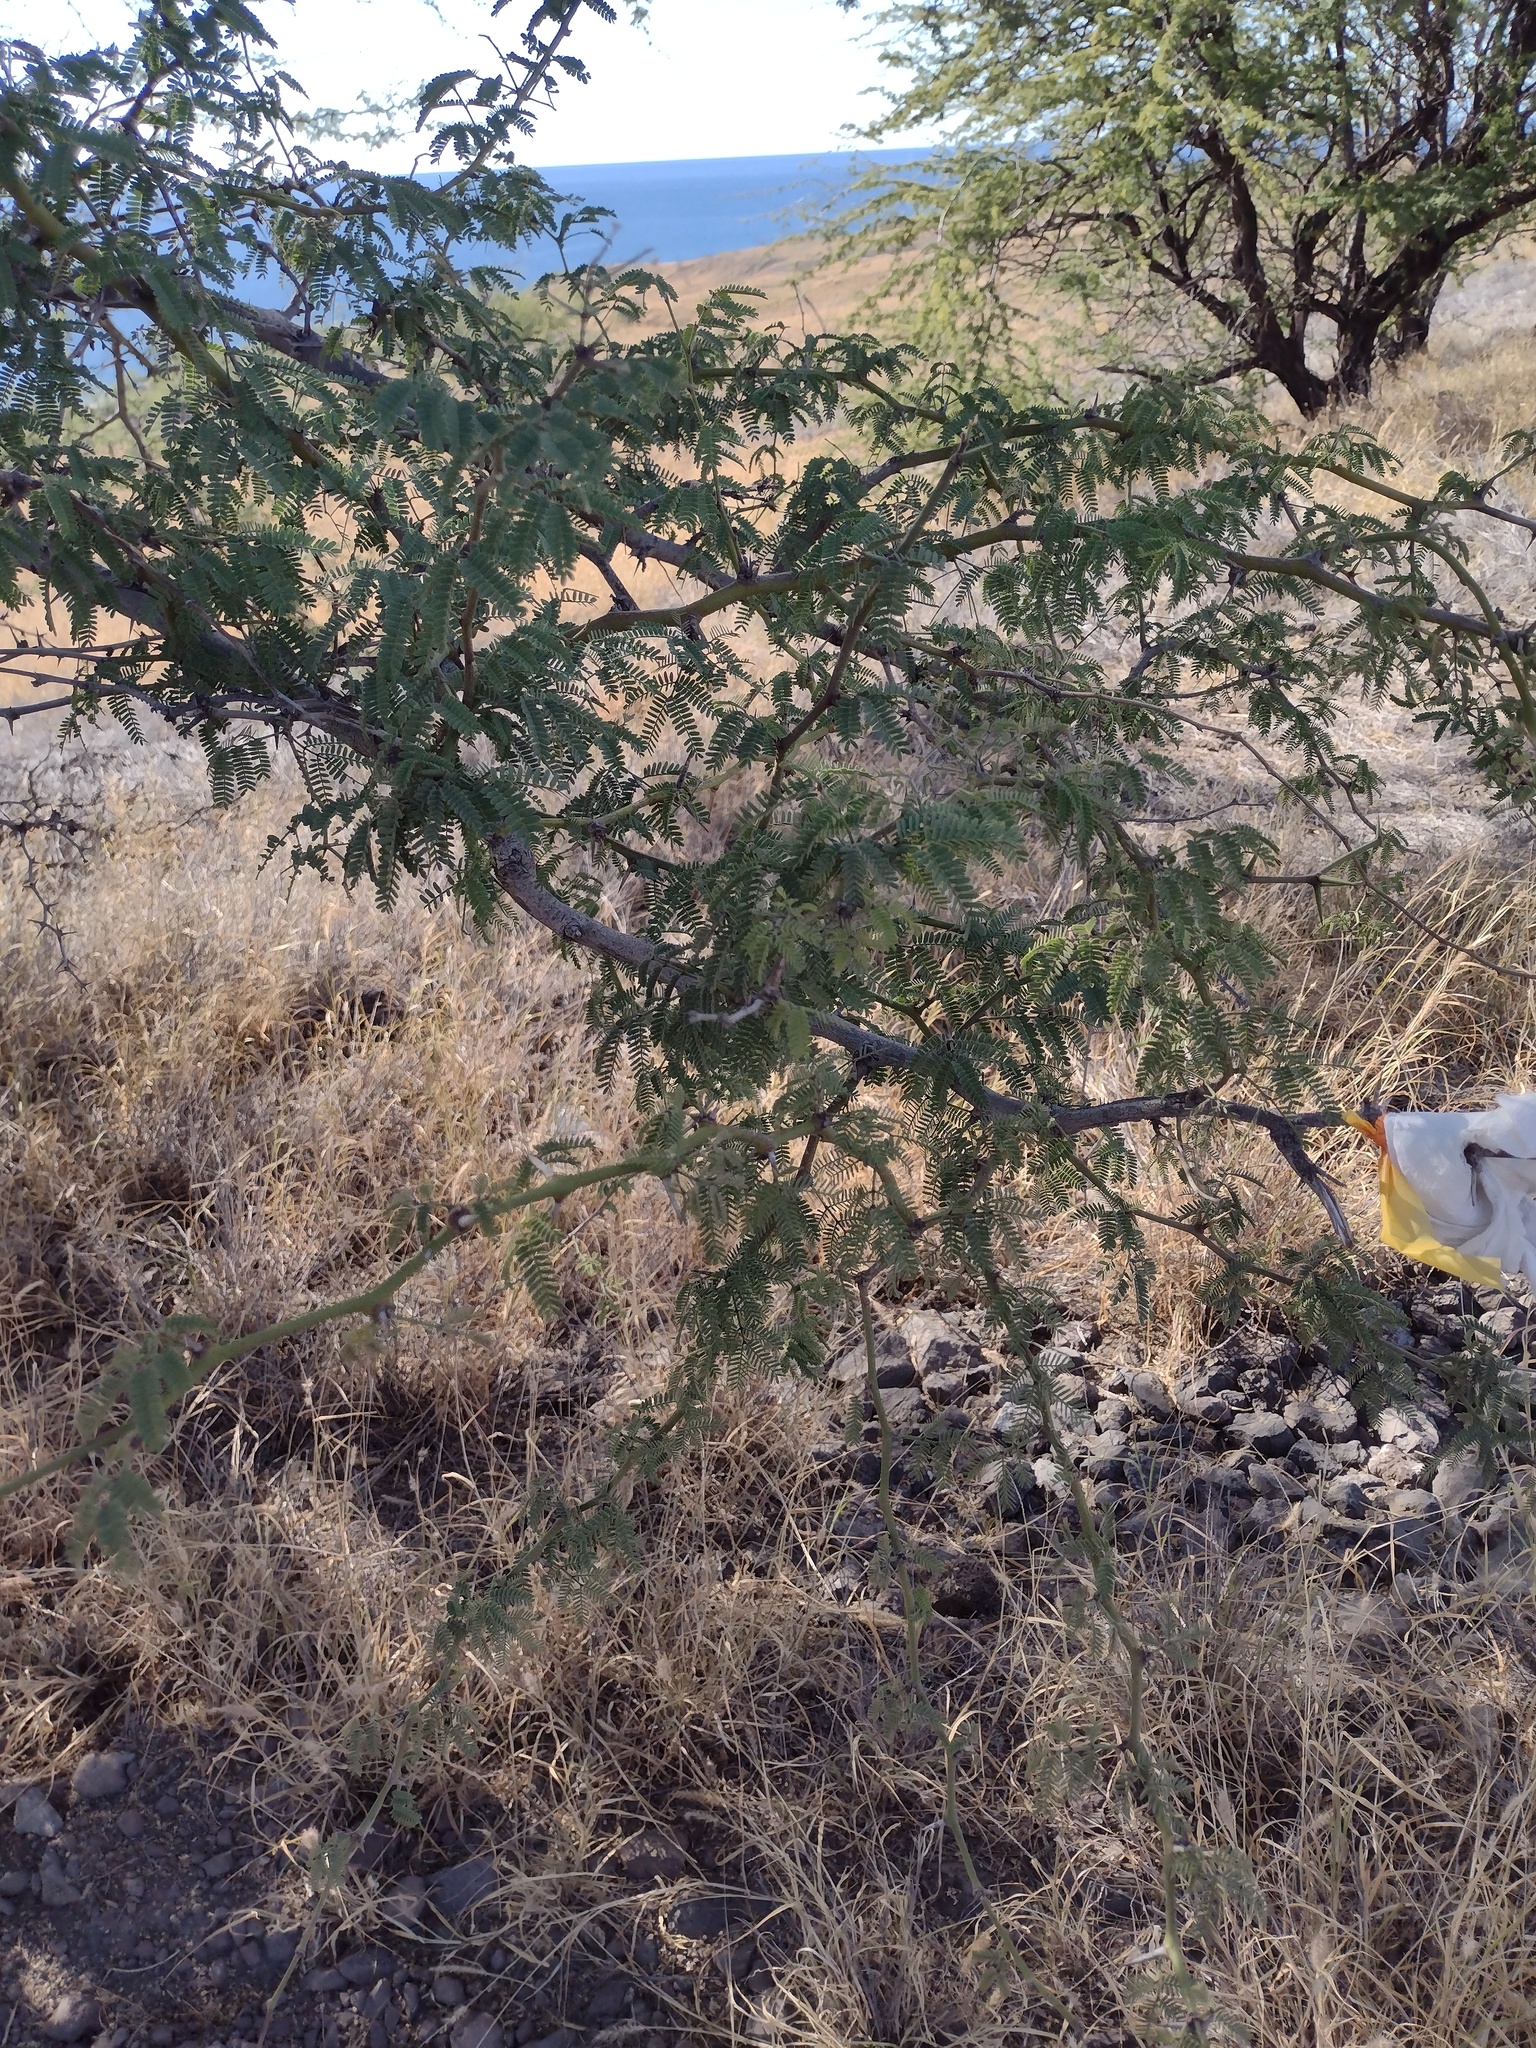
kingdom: Plantae
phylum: Tracheophyta
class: Magnoliopsida
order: Fabales
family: Fabaceae
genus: Prosopis
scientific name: Prosopis pallida
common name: Mesquite
